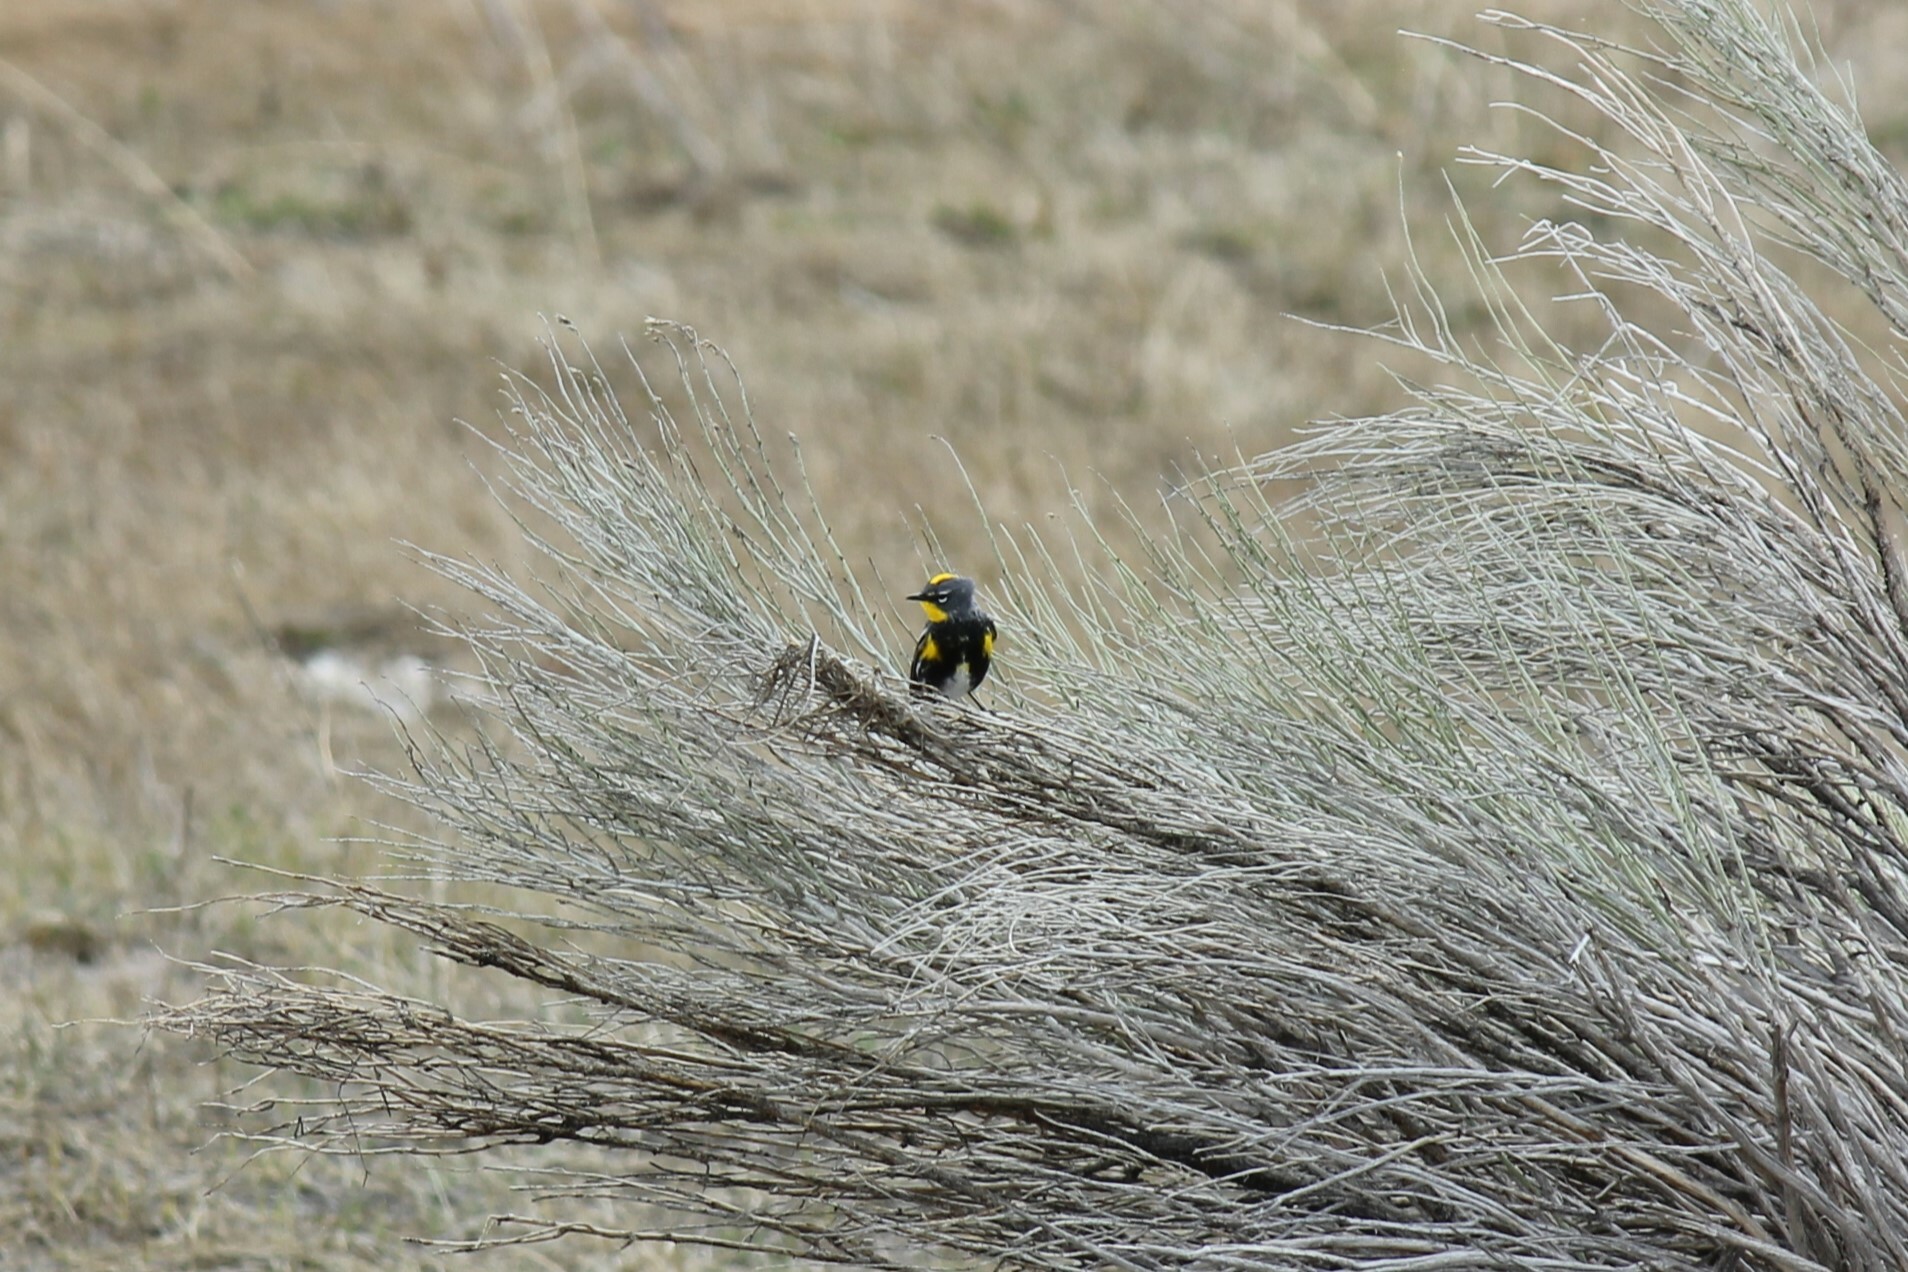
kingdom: Animalia
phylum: Chordata
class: Aves
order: Passeriformes
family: Parulidae
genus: Setophaga
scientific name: Setophaga coronata
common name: Myrtle warbler
